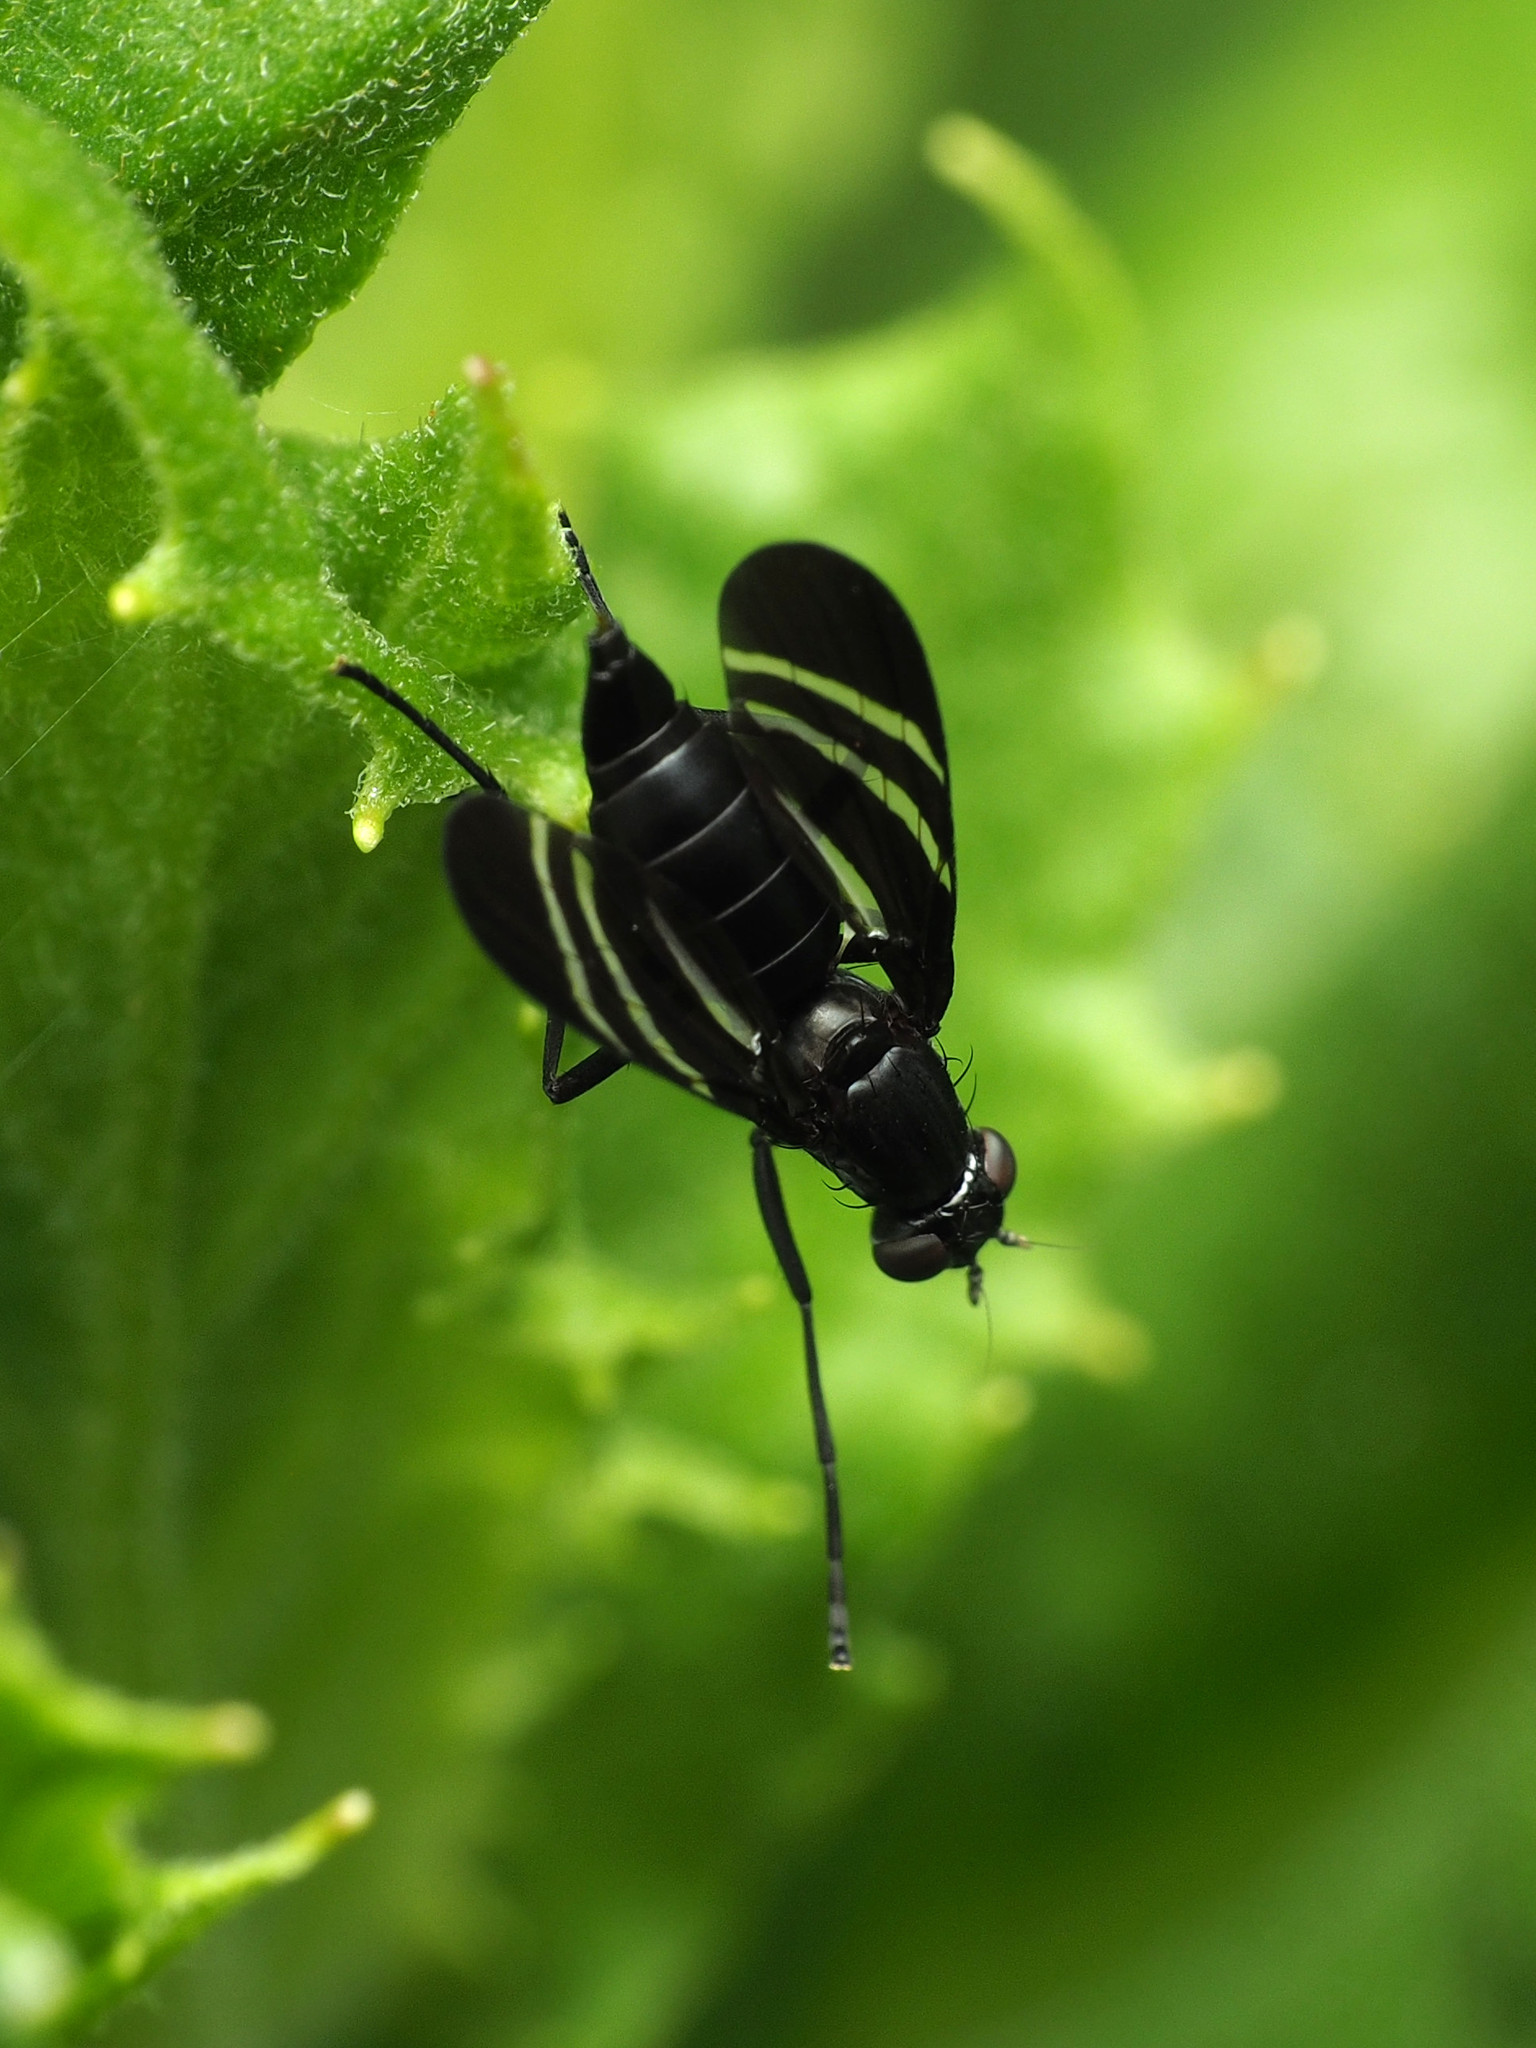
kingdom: Animalia
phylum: Arthropoda
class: Insecta
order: Diptera
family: Ulidiidae
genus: Tritoxa
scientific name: Tritoxa flexa
